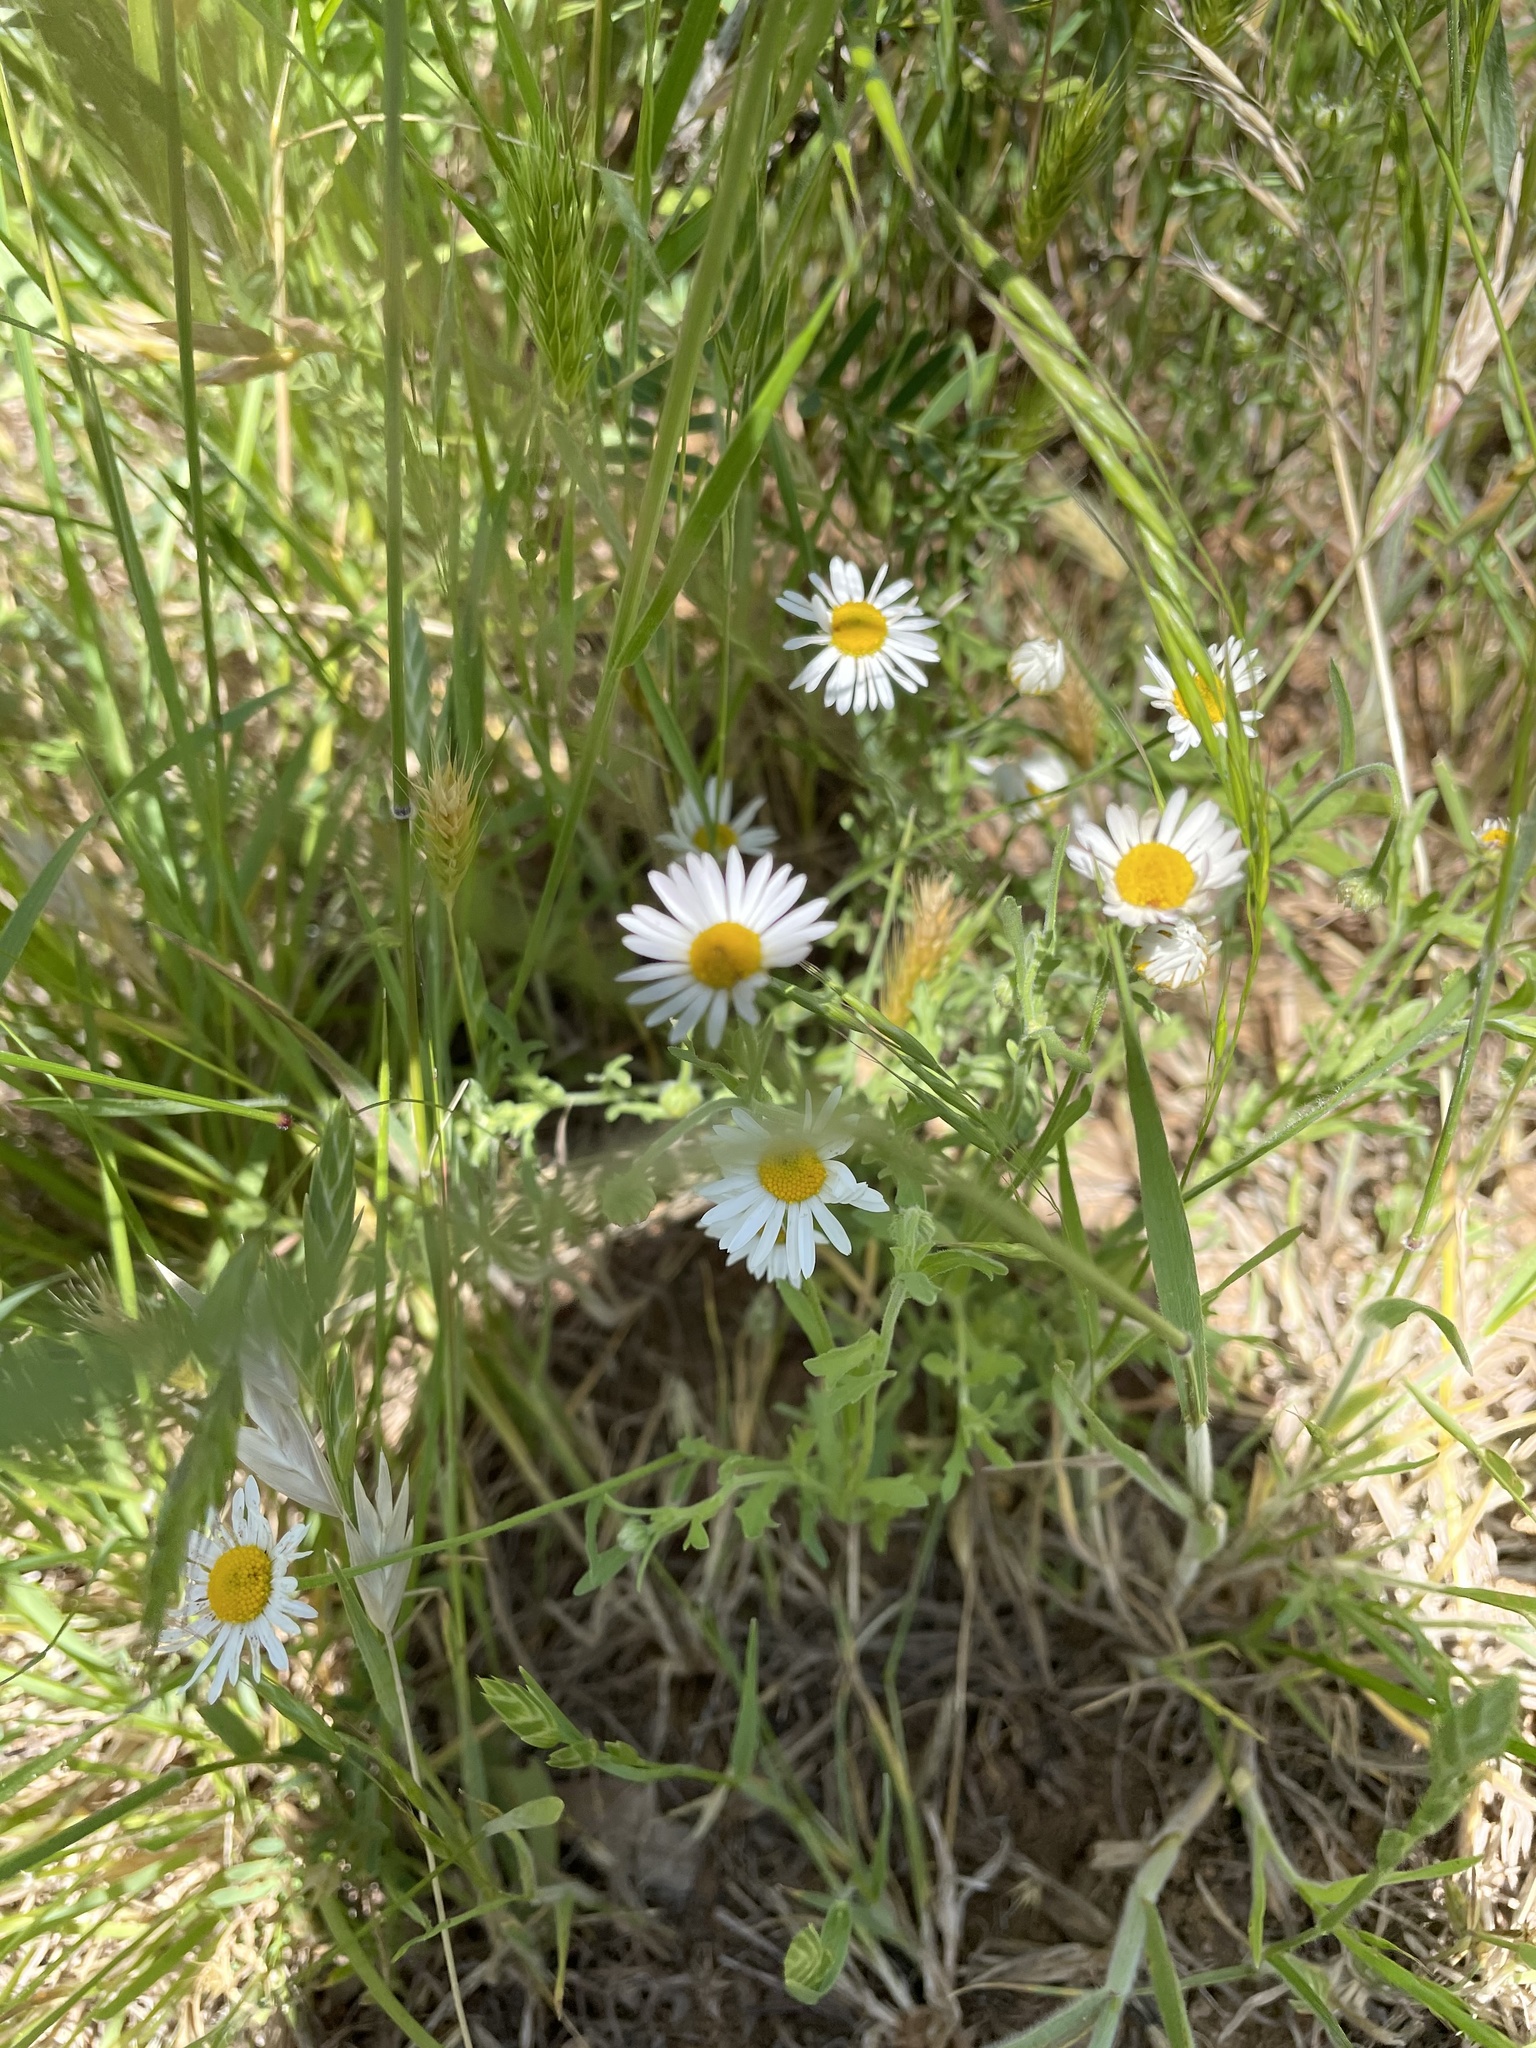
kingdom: Plantae
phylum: Tracheophyta
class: Magnoliopsida
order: Asterales
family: Asteraceae
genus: Aphanostephus
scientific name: Aphanostephus ramosissimus
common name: Plains lazy daisy
